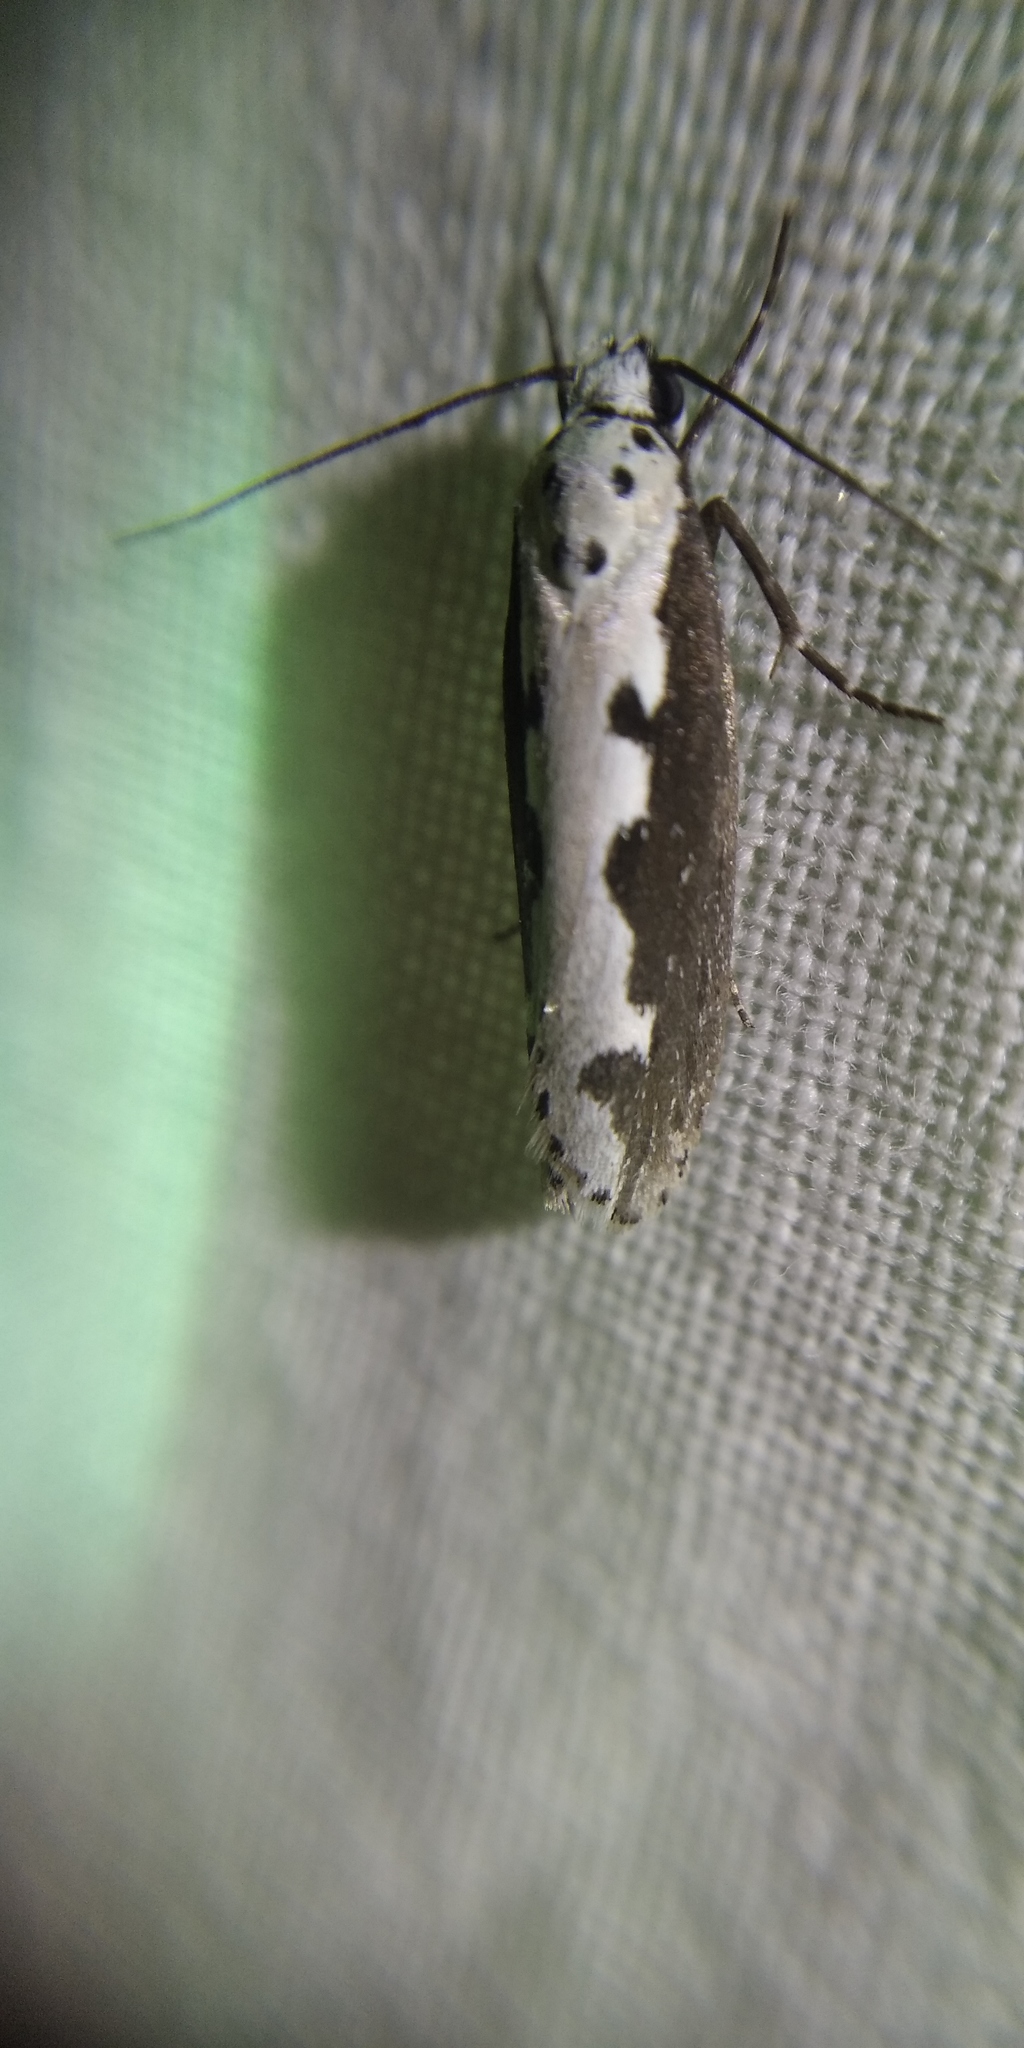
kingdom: Animalia
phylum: Arthropoda
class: Insecta
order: Lepidoptera
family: Ethmiidae
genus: Ethmia
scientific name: Ethmia bipunctella
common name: Bordered ermel
